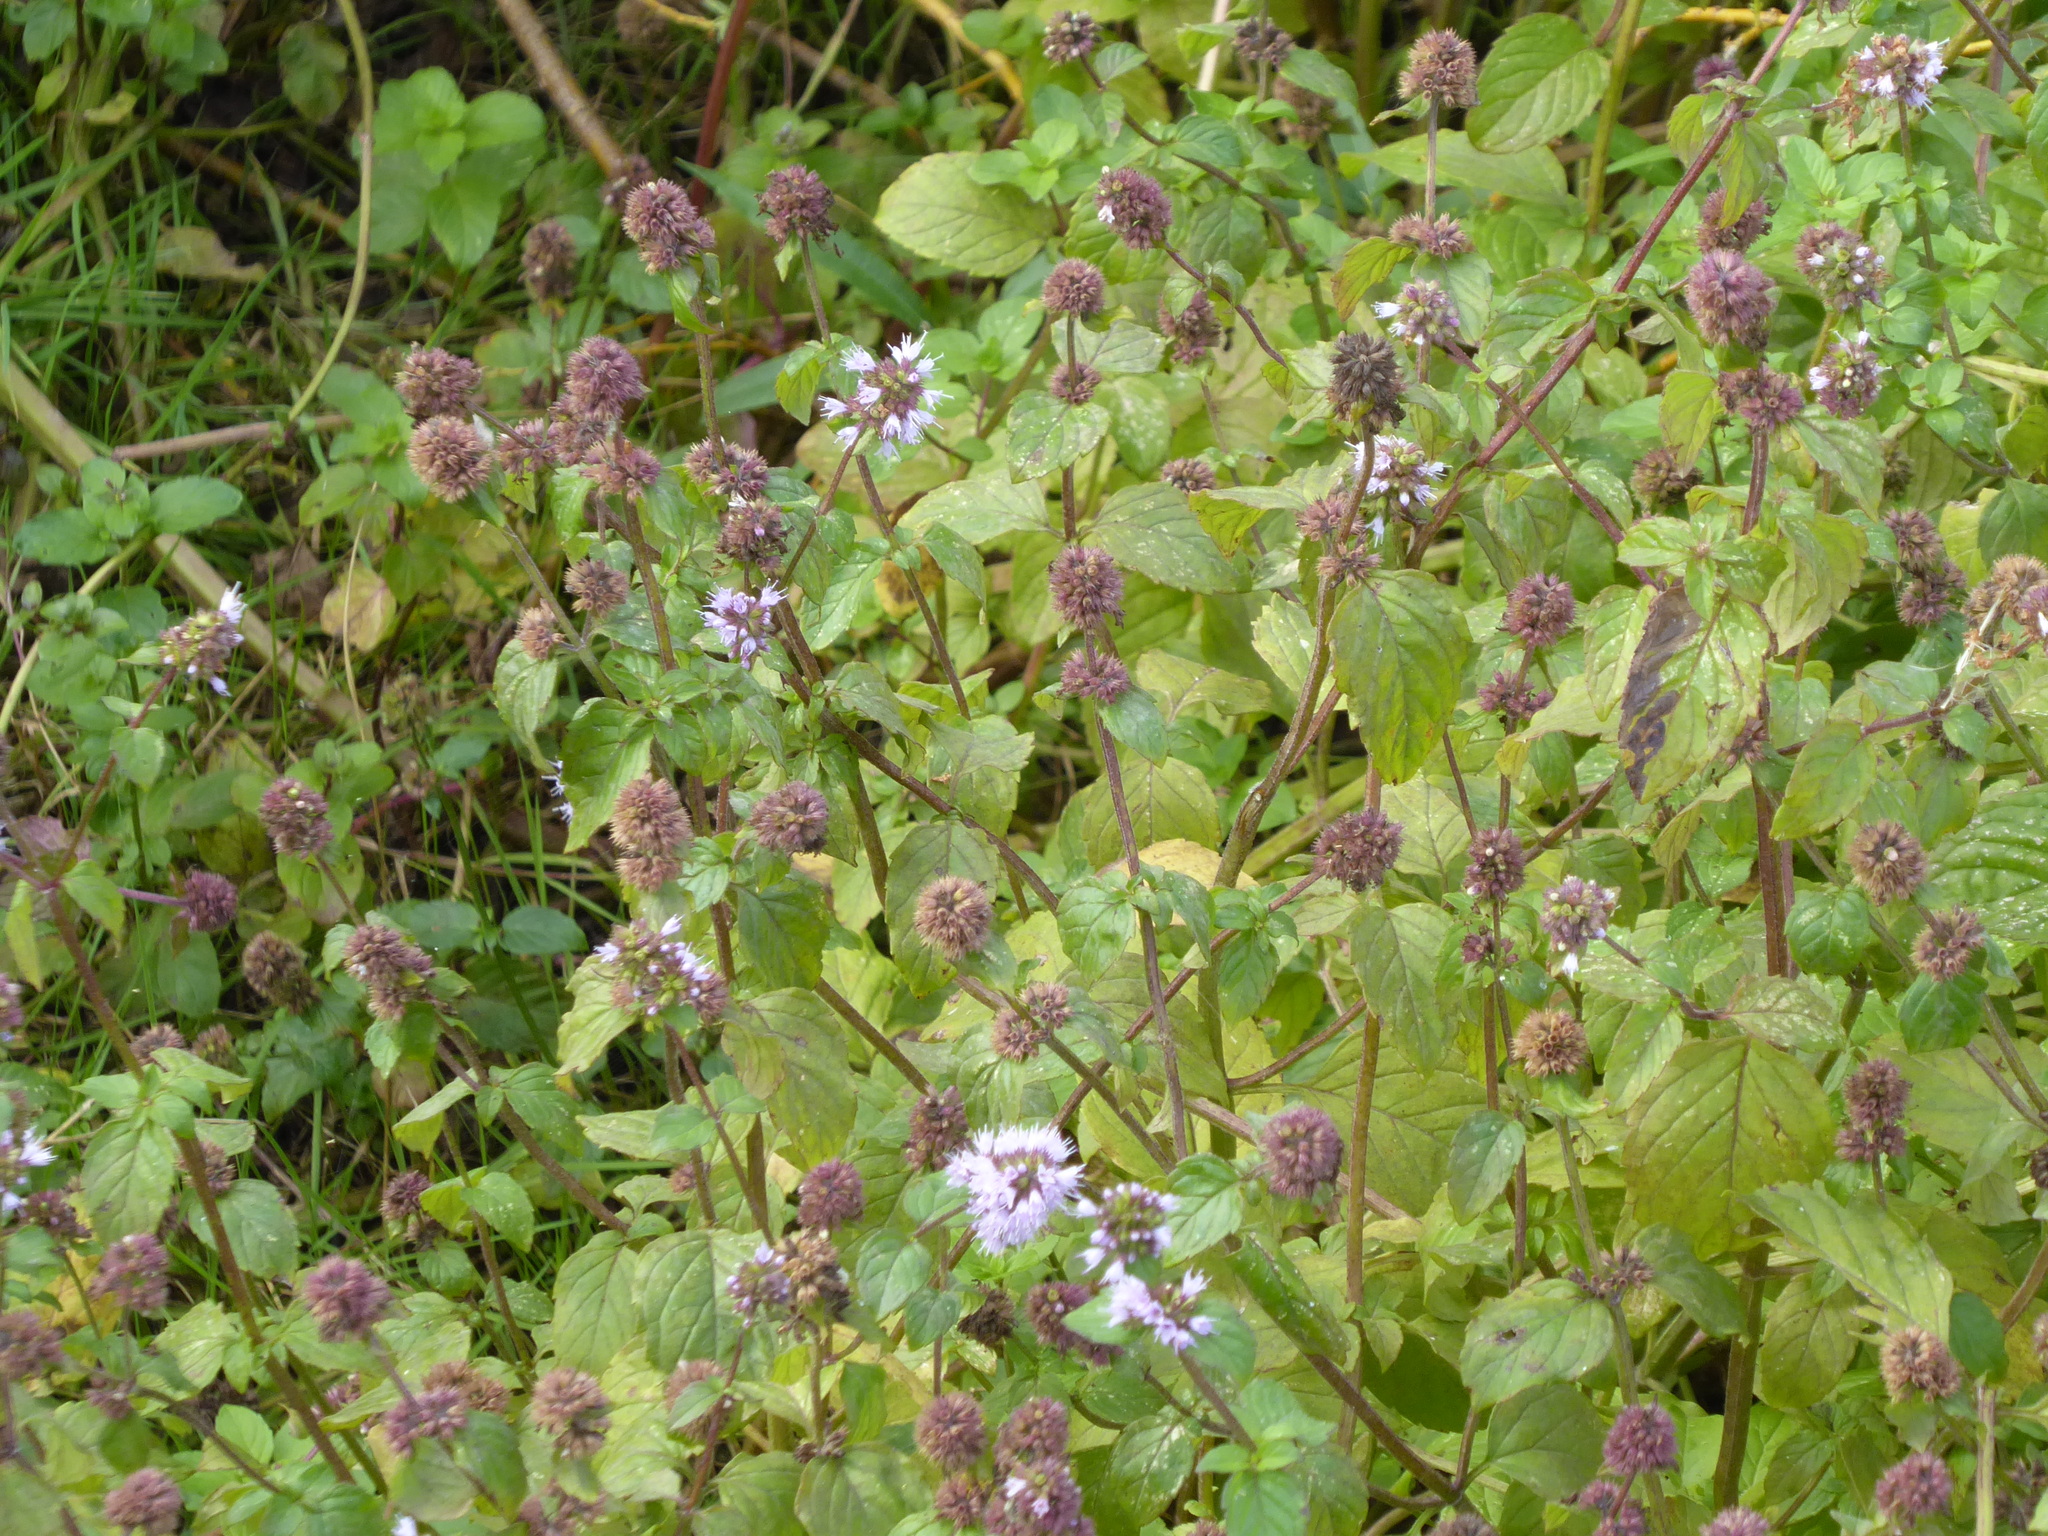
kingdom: Plantae
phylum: Tracheophyta
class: Magnoliopsida
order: Lamiales
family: Lamiaceae
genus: Mentha
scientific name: Mentha aquatica
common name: Water mint
